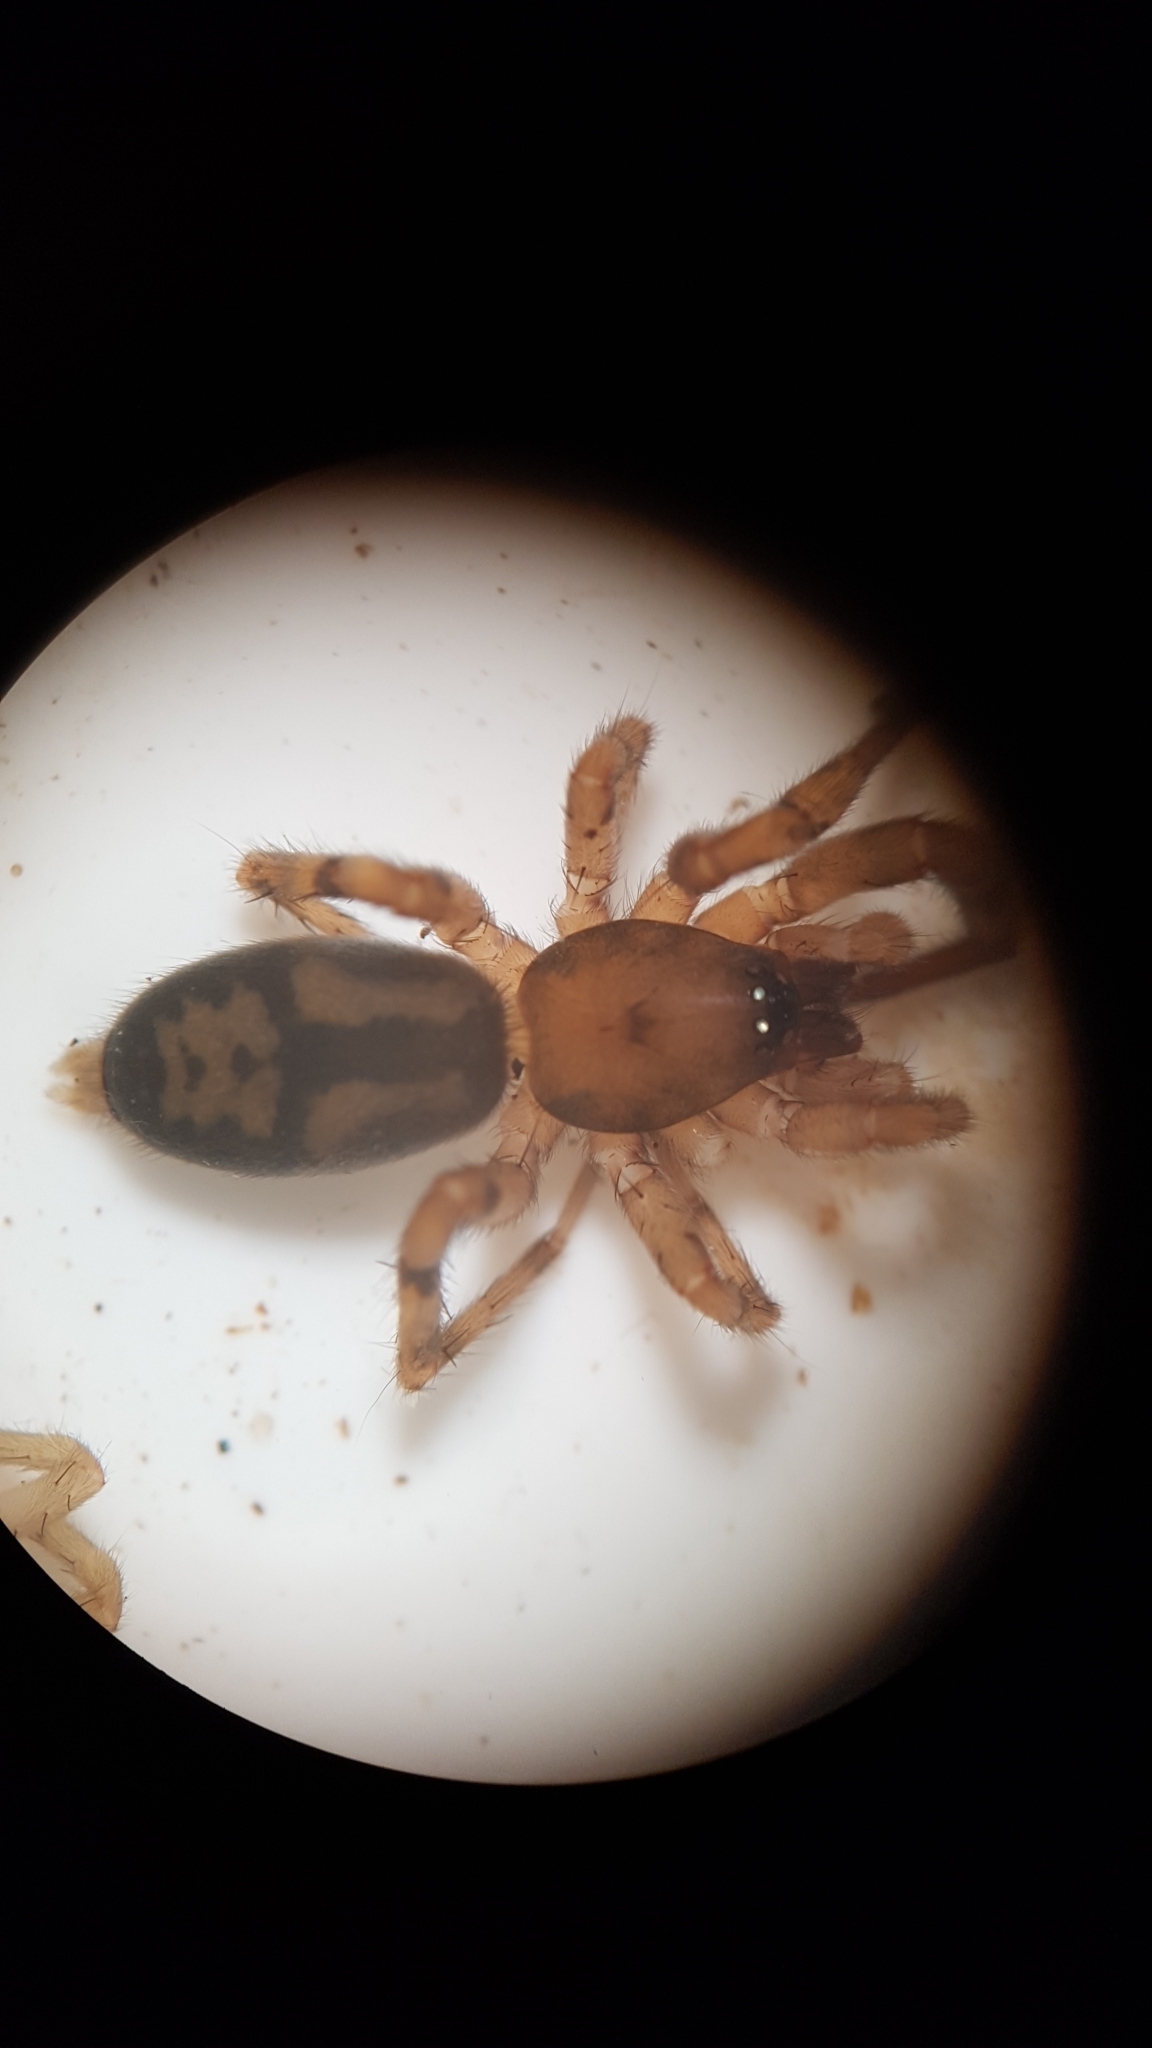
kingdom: Animalia
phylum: Arthropoda
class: Arachnida
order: Araneae
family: Gnaphosidae
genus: Intruda
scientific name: Intruda signata
